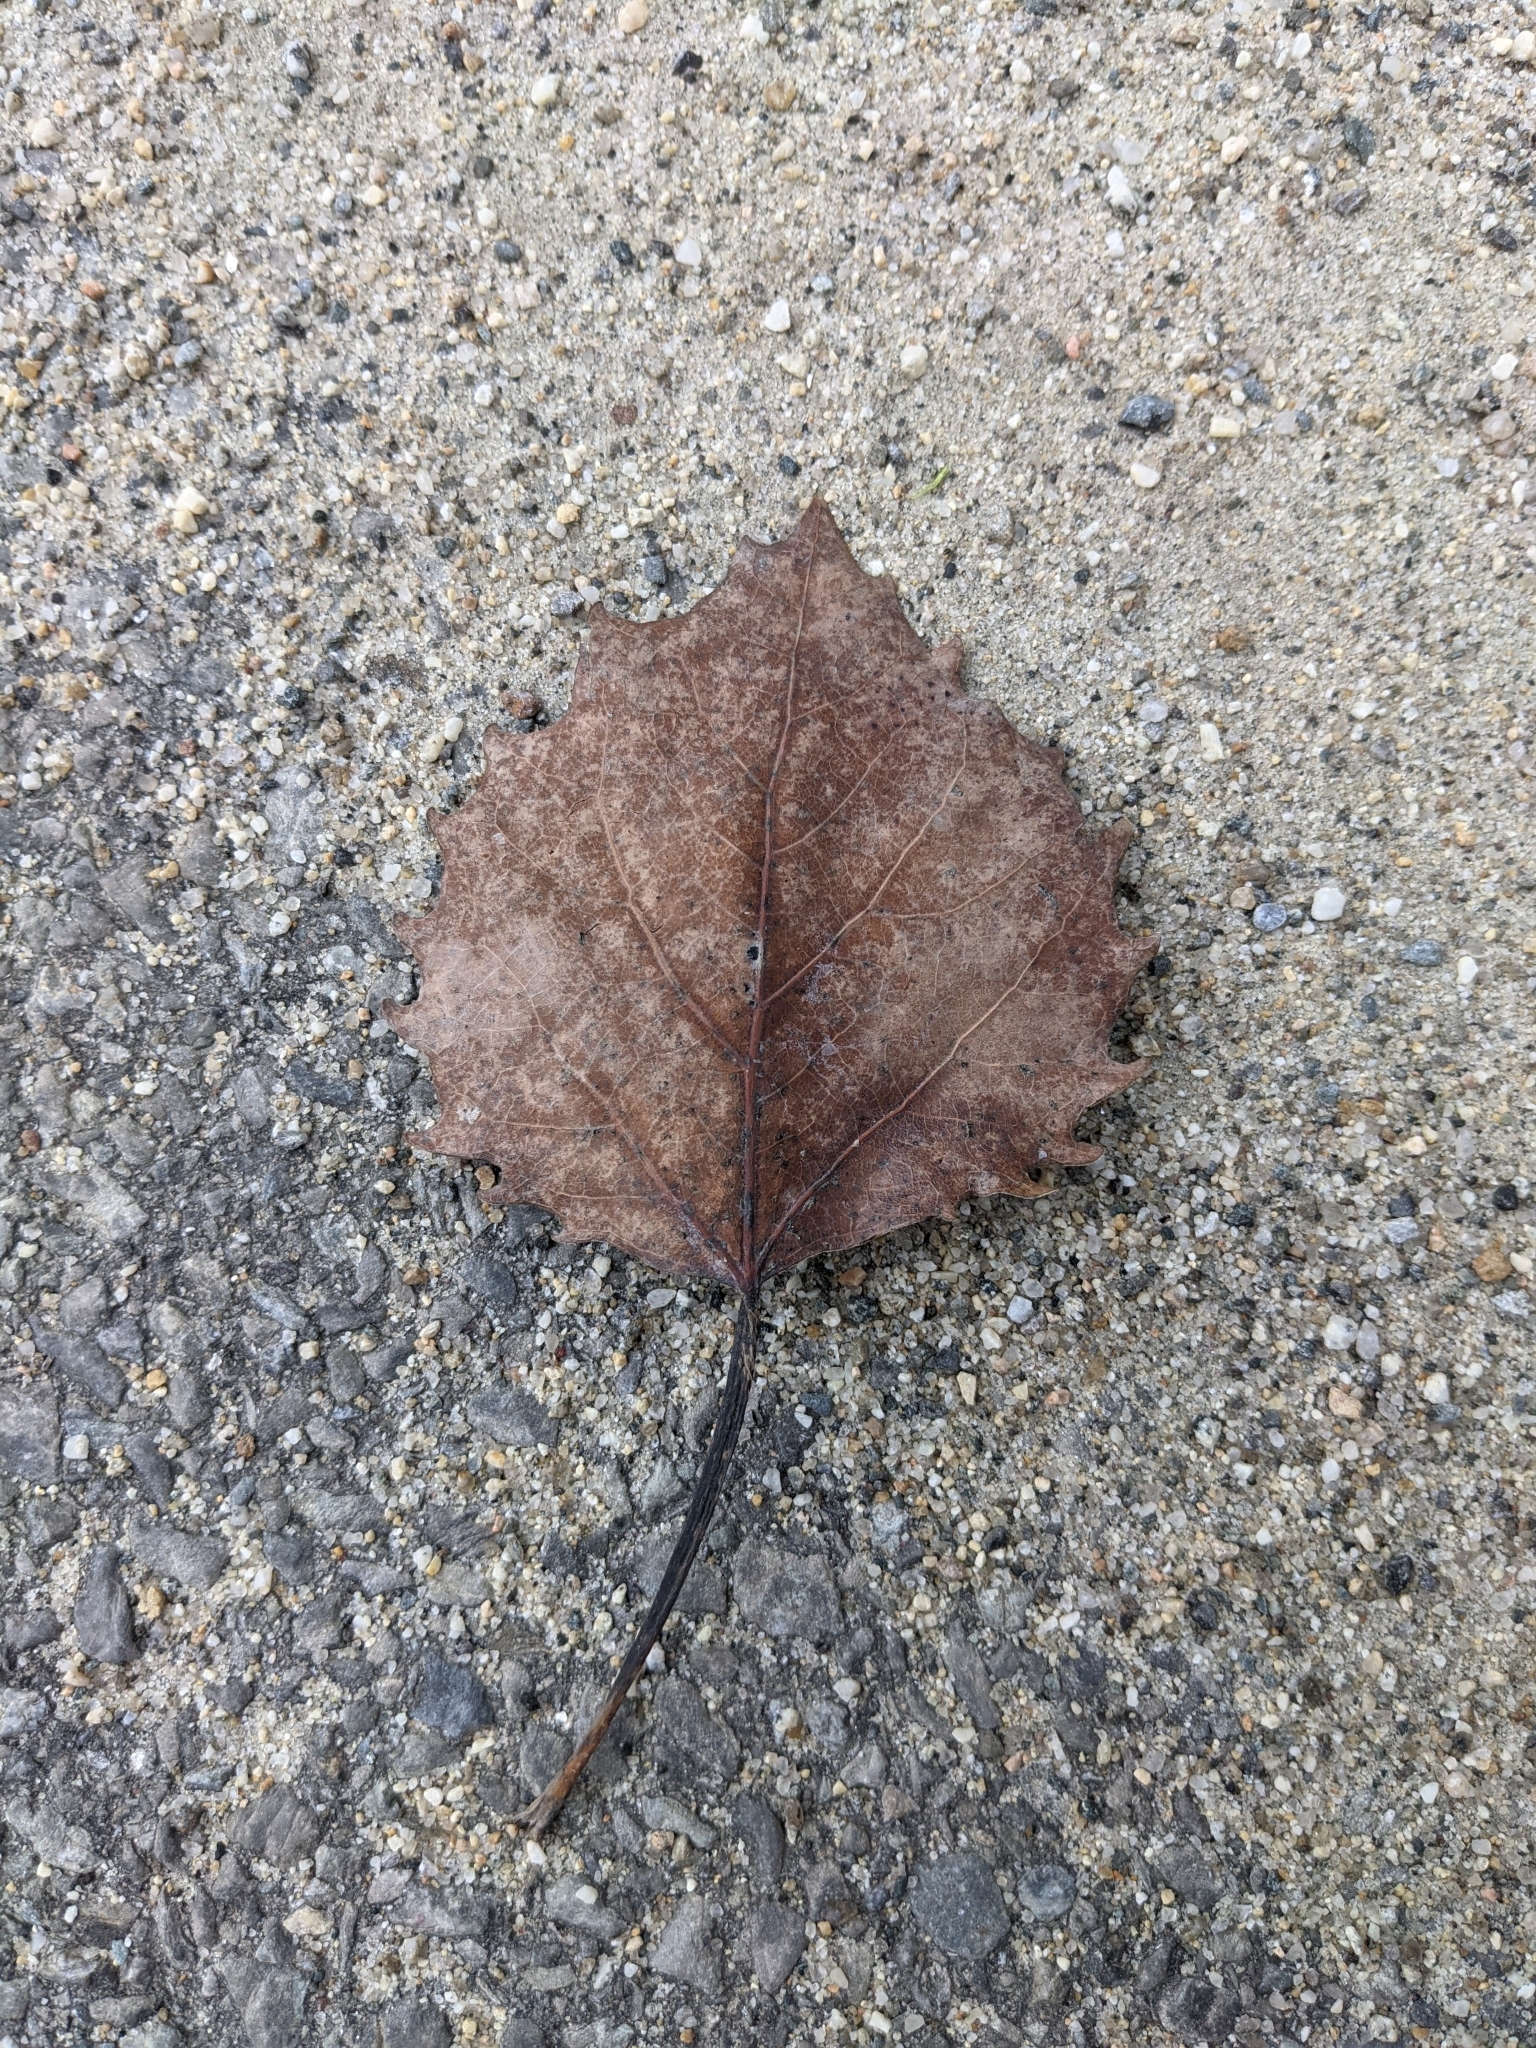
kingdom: Plantae
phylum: Tracheophyta
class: Magnoliopsida
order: Malpighiales
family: Salicaceae
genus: Populus
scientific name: Populus grandidentata
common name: Bigtooth aspen
